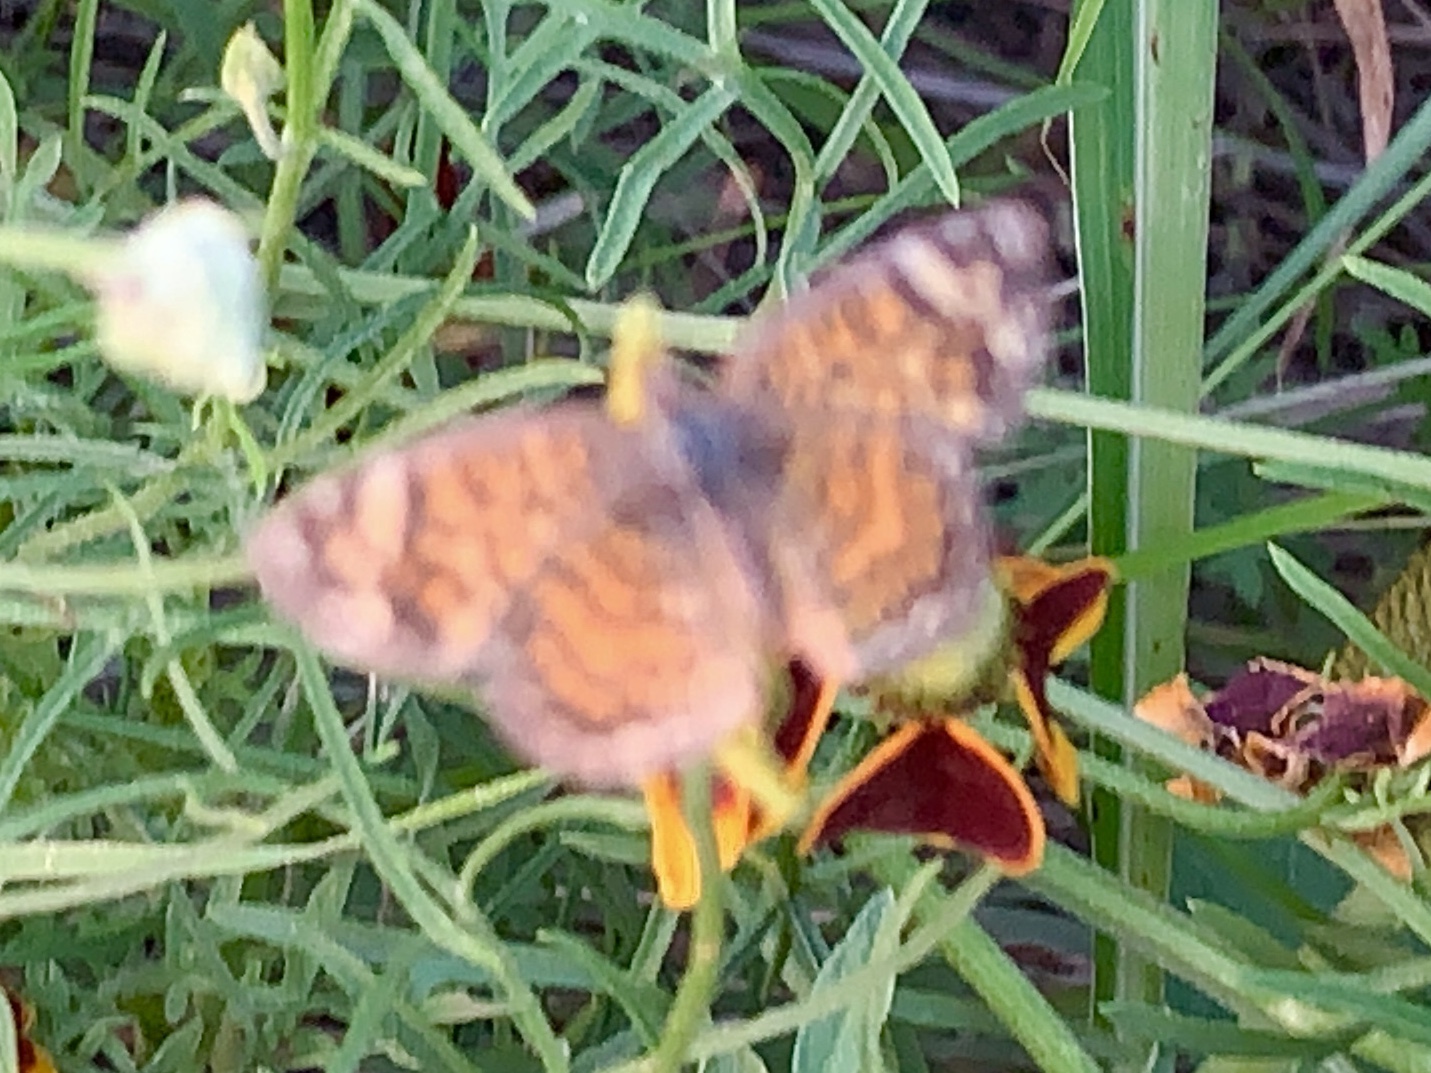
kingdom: Animalia
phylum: Arthropoda
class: Insecta
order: Lepidoptera
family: Nymphalidae
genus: Phyciodes
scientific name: Phyciodes vesta
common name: Vesta crescent
